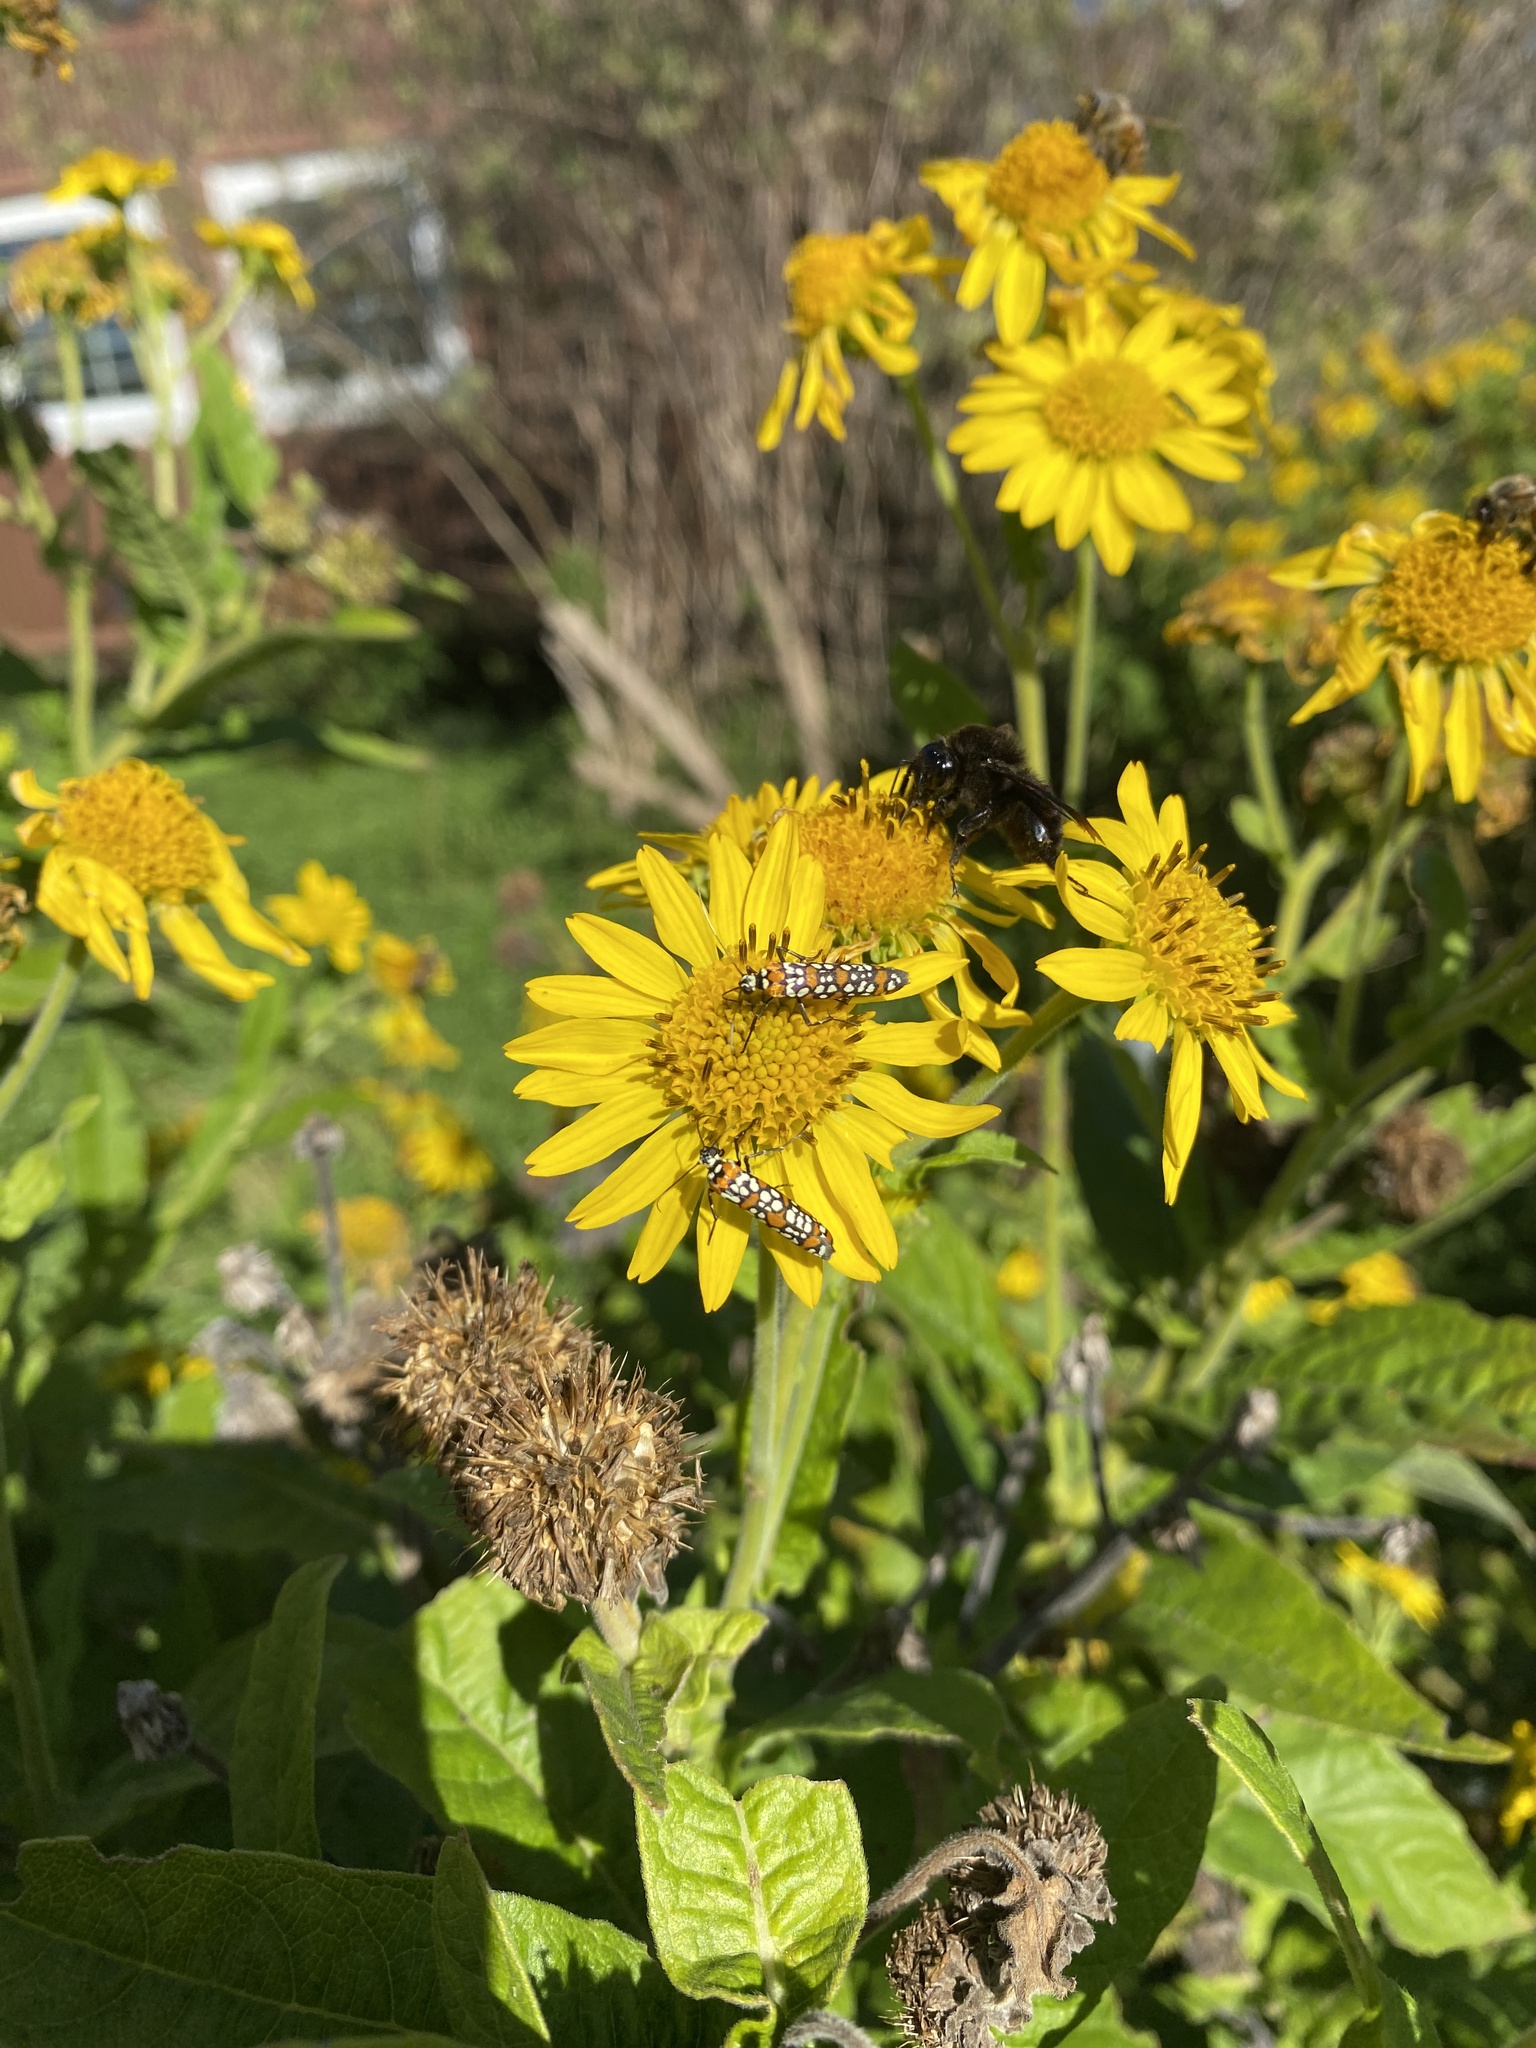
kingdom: Animalia
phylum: Arthropoda
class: Insecta
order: Lepidoptera
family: Attevidae
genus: Atteva
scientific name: Atteva punctella
